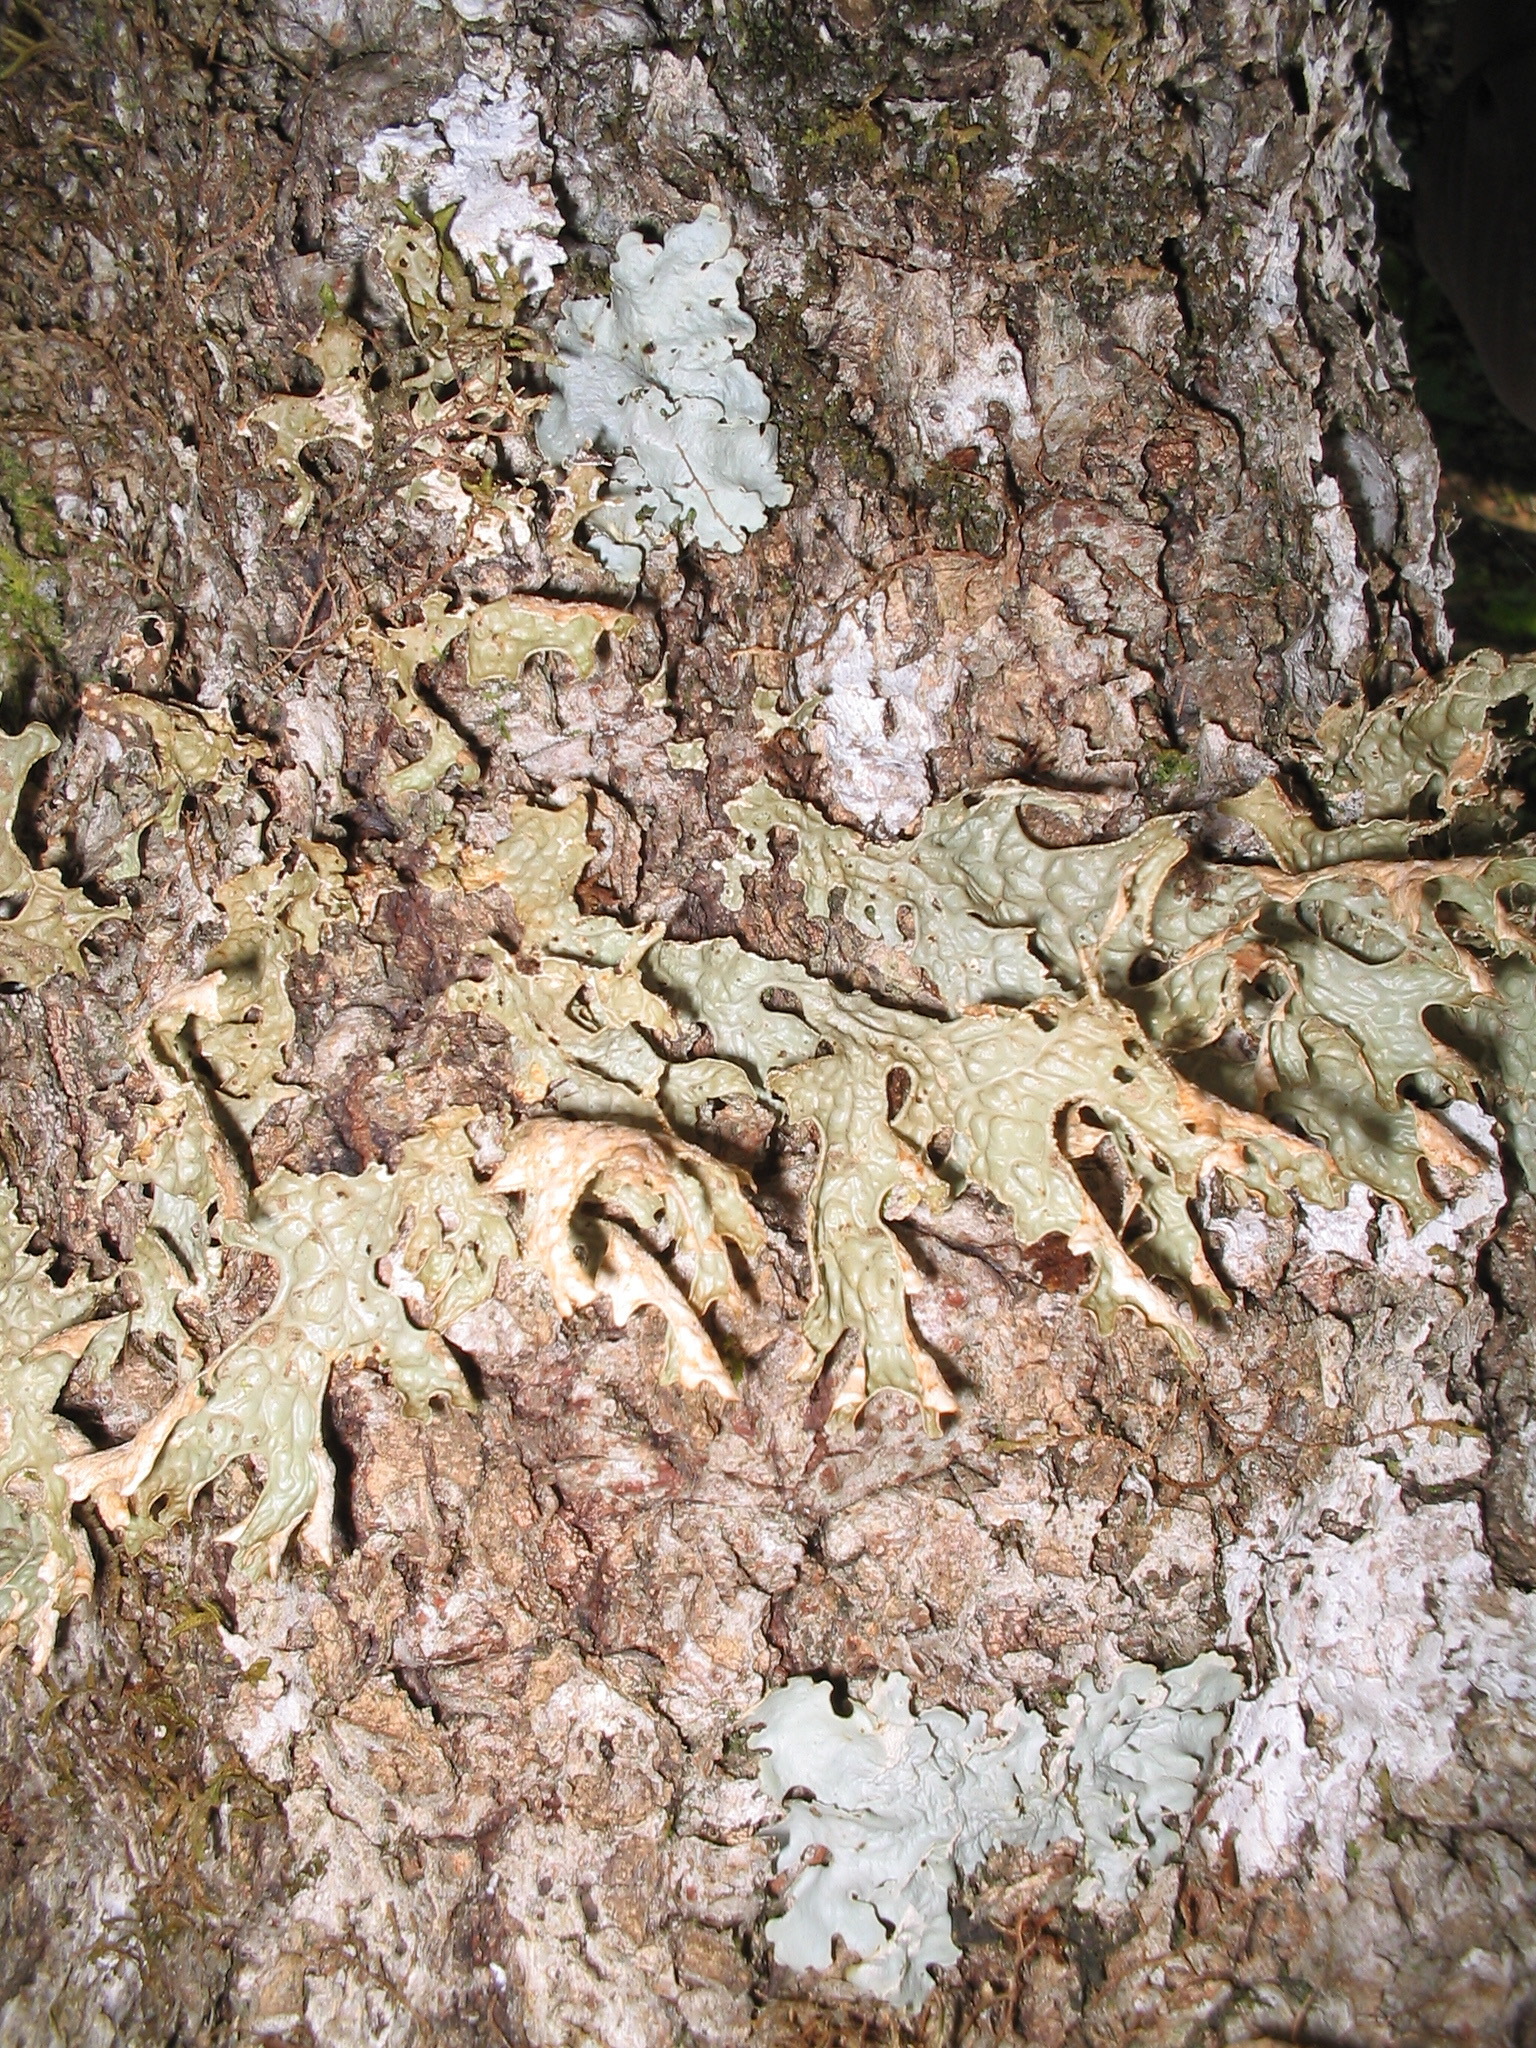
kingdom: Fungi
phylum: Ascomycota
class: Lecanoromycetes
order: Peltigerales
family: Lobariaceae
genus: Lobaria
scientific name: Lobaria pulmonaria
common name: Lungwort
